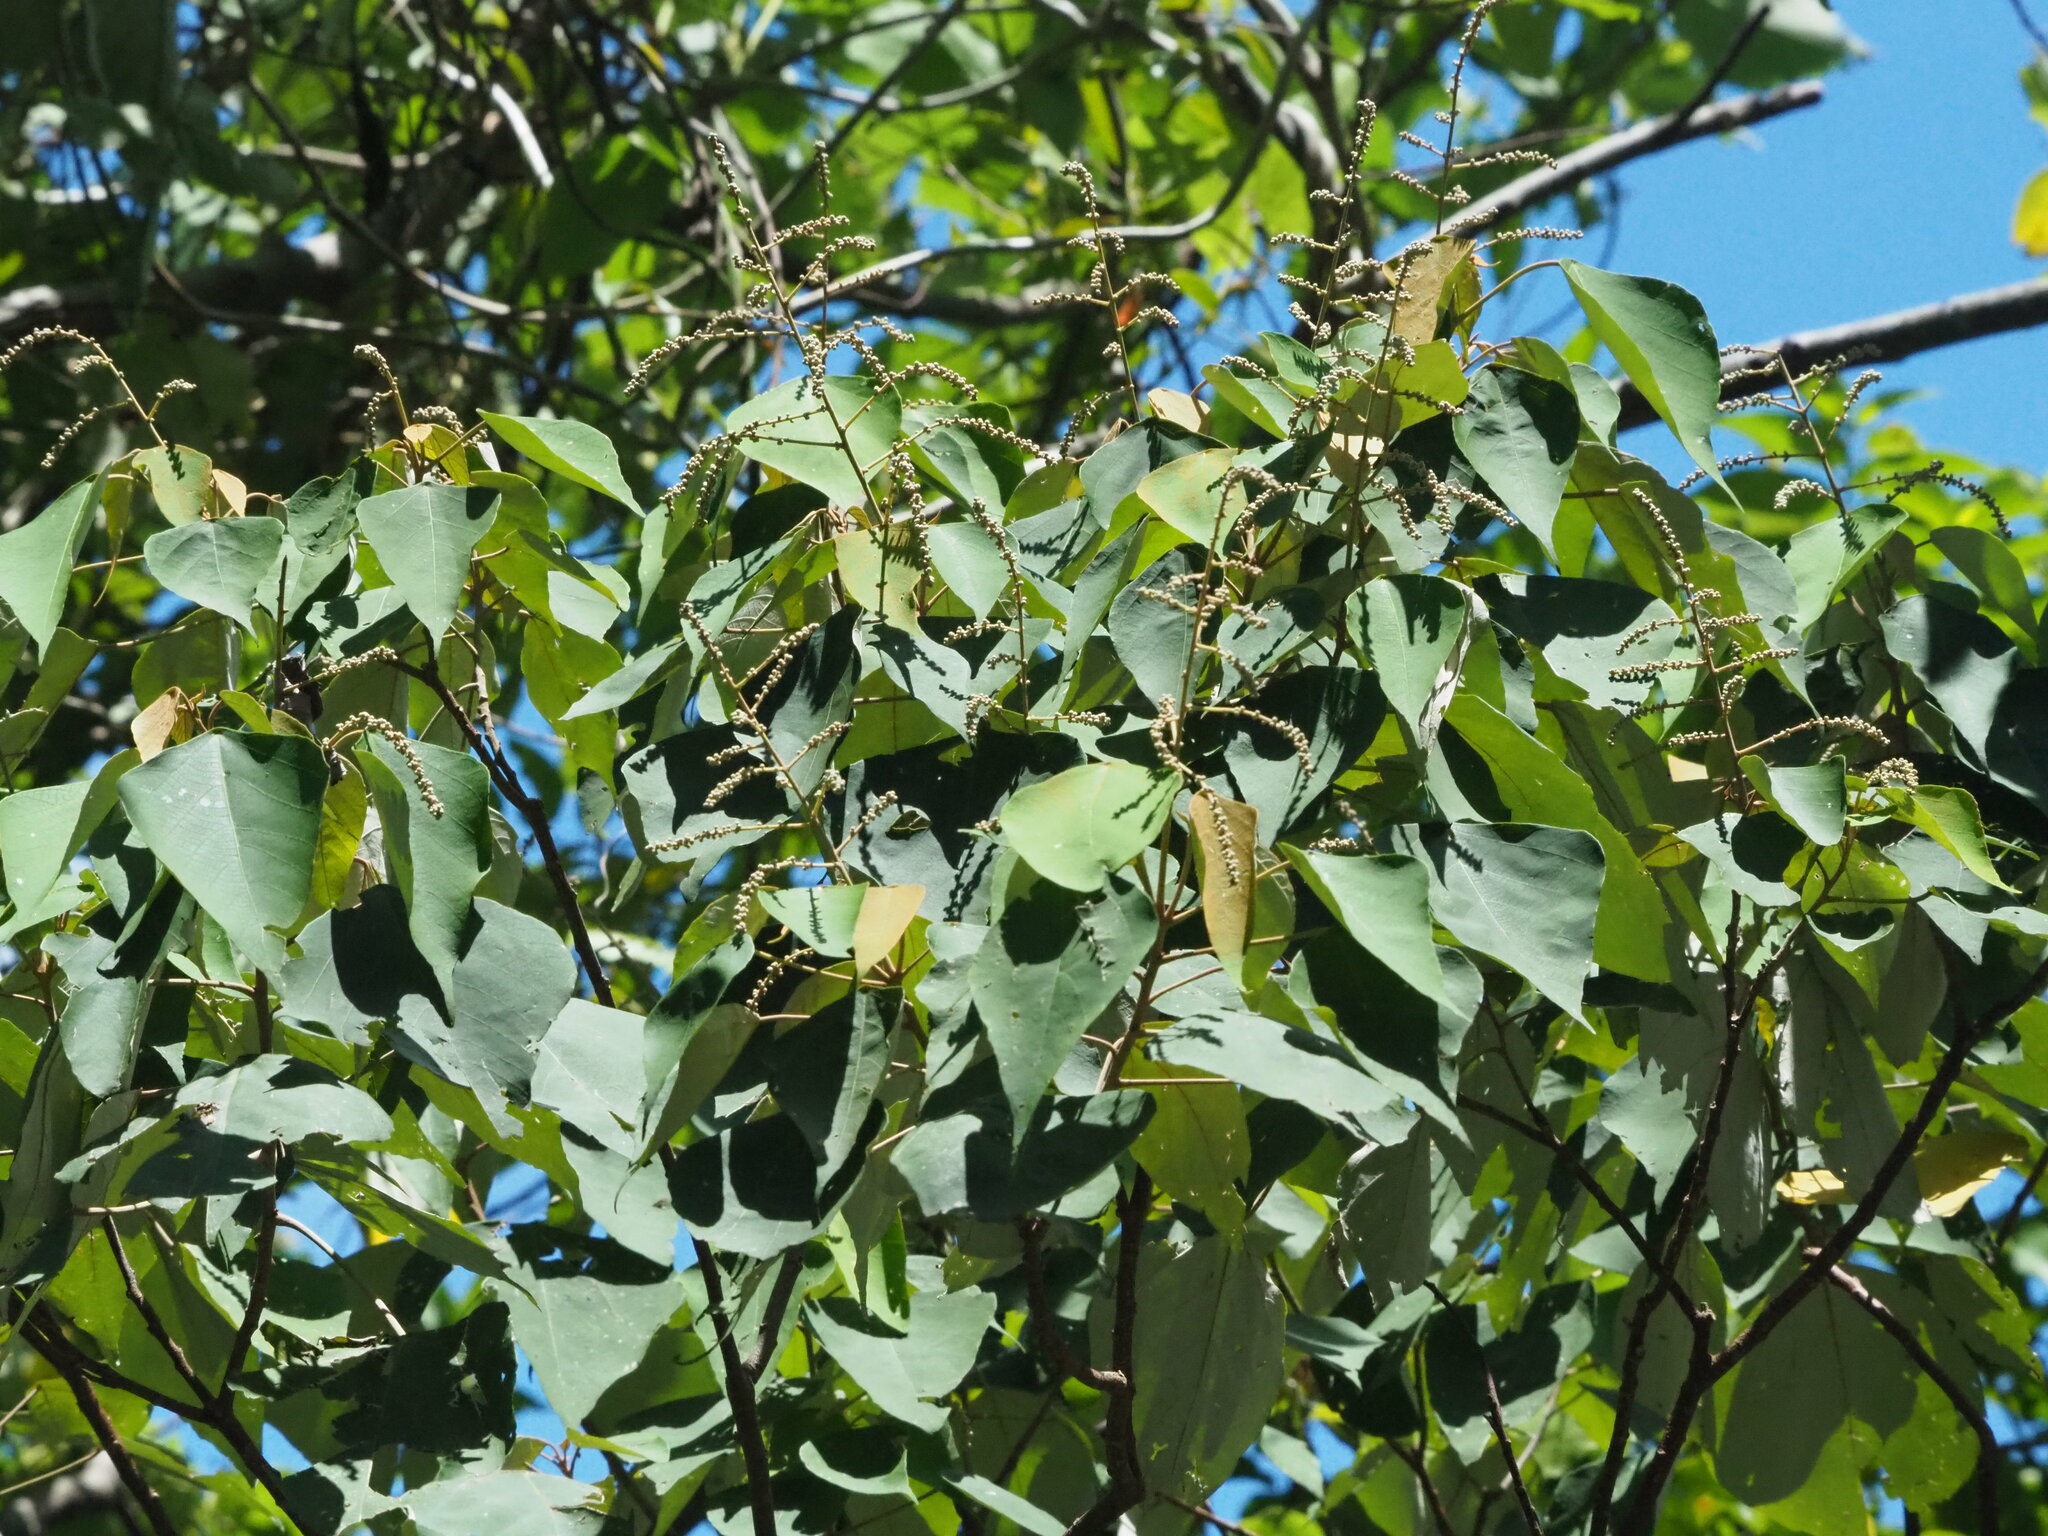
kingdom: Plantae
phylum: Tracheophyta
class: Magnoliopsida
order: Malpighiales
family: Euphorbiaceae
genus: Mallotus
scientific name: Mallotus paniculatus
